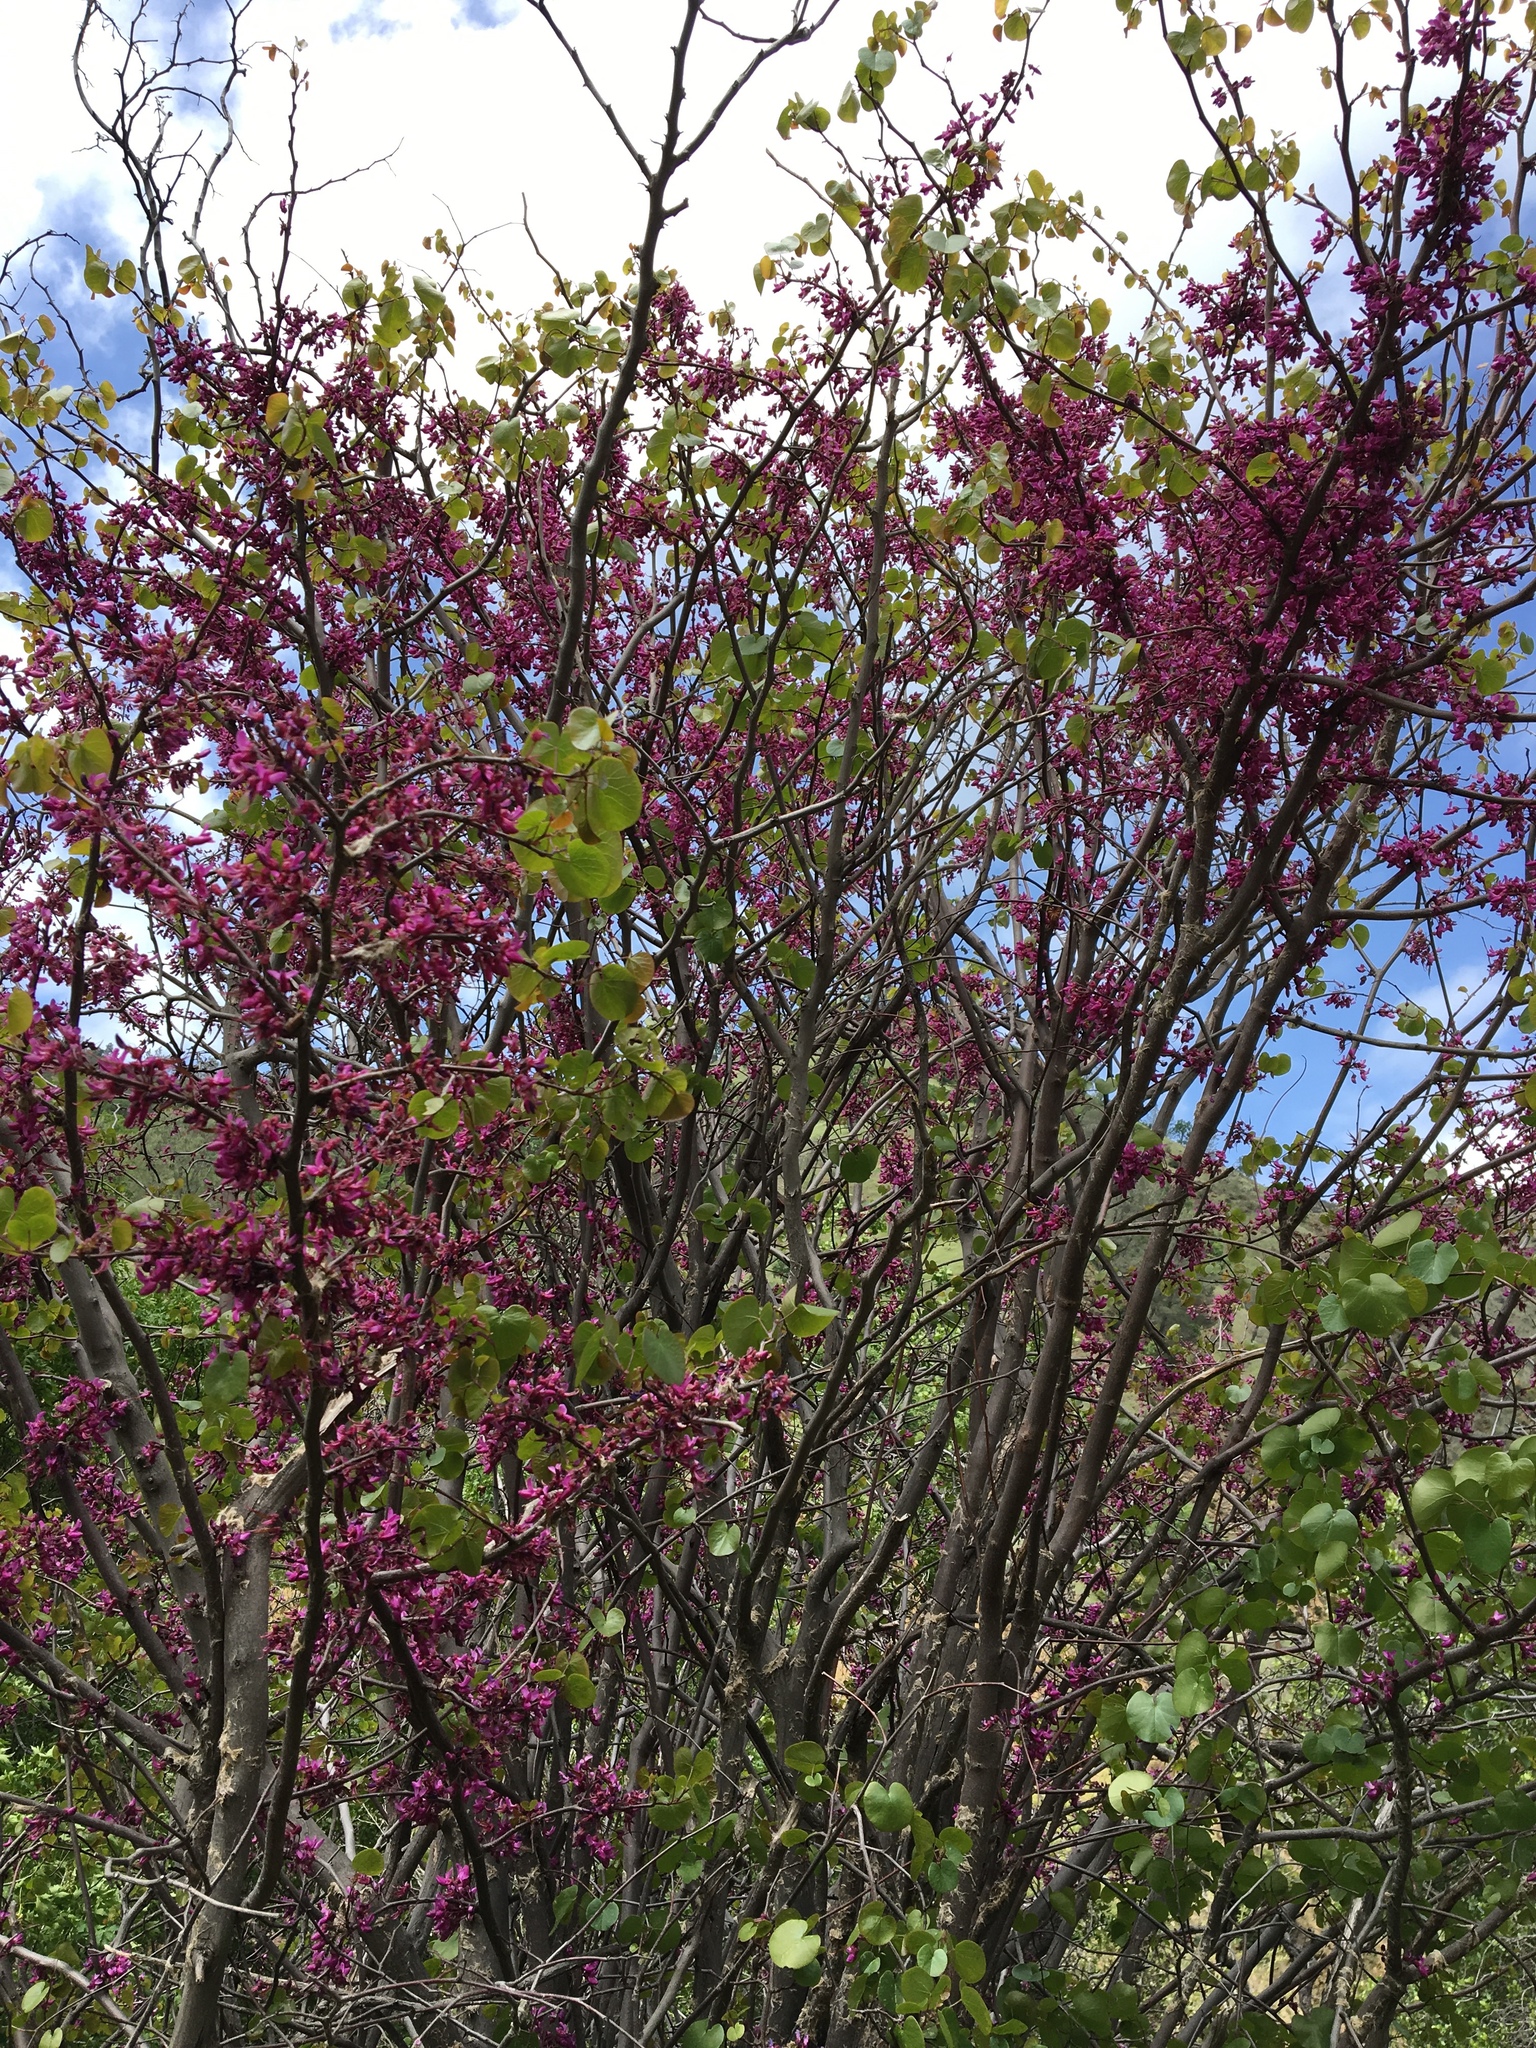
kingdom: Plantae
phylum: Tracheophyta
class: Magnoliopsida
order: Fabales
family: Fabaceae
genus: Cercis
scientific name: Cercis occidentalis
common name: California redbud
